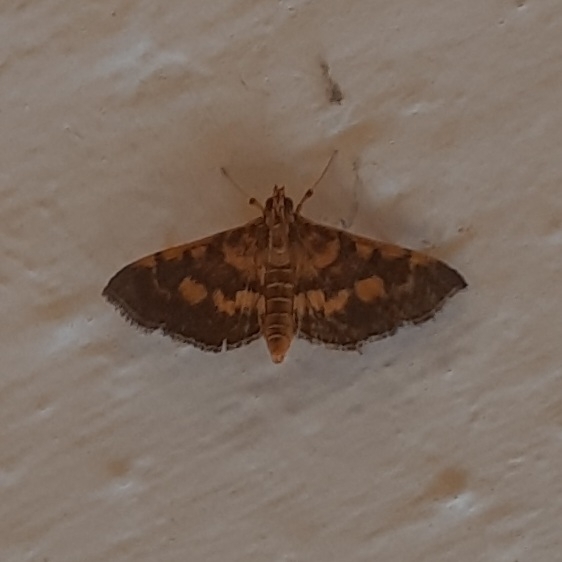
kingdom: Animalia
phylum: Arthropoda
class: Insecta
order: Lepidoptera
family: Crambidae
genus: Omiodes
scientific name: Omiodes diemenalis
